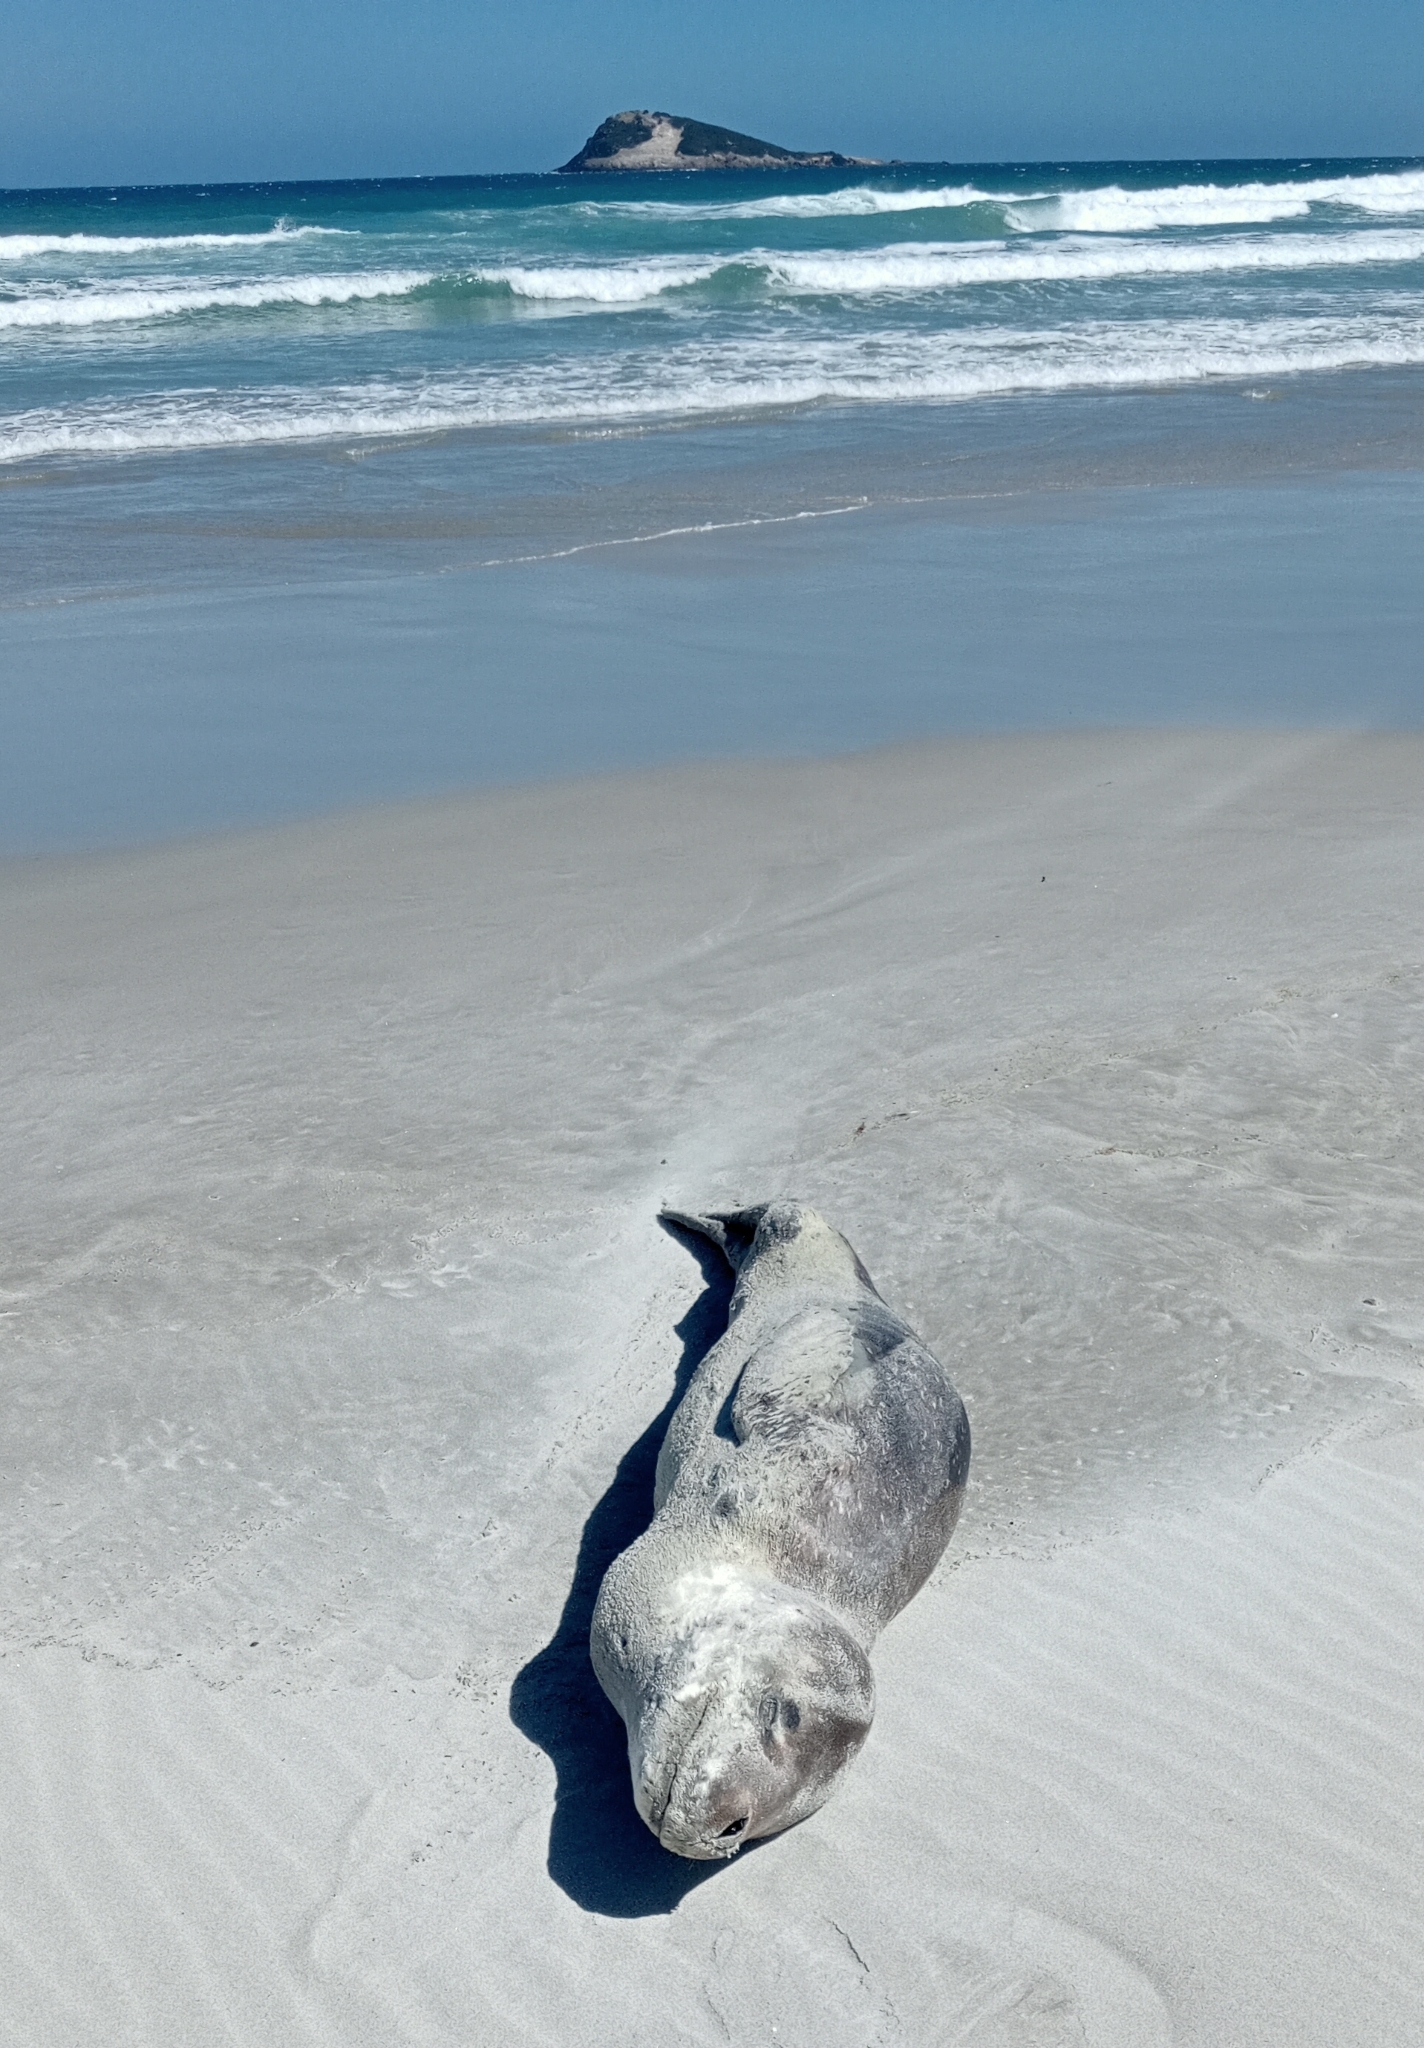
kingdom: Animalia
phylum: Chordata
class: Mammalia
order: Carnivora
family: Phocidae
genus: Hydrurga
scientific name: Hydrurga leptonyx
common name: Leopard seal
